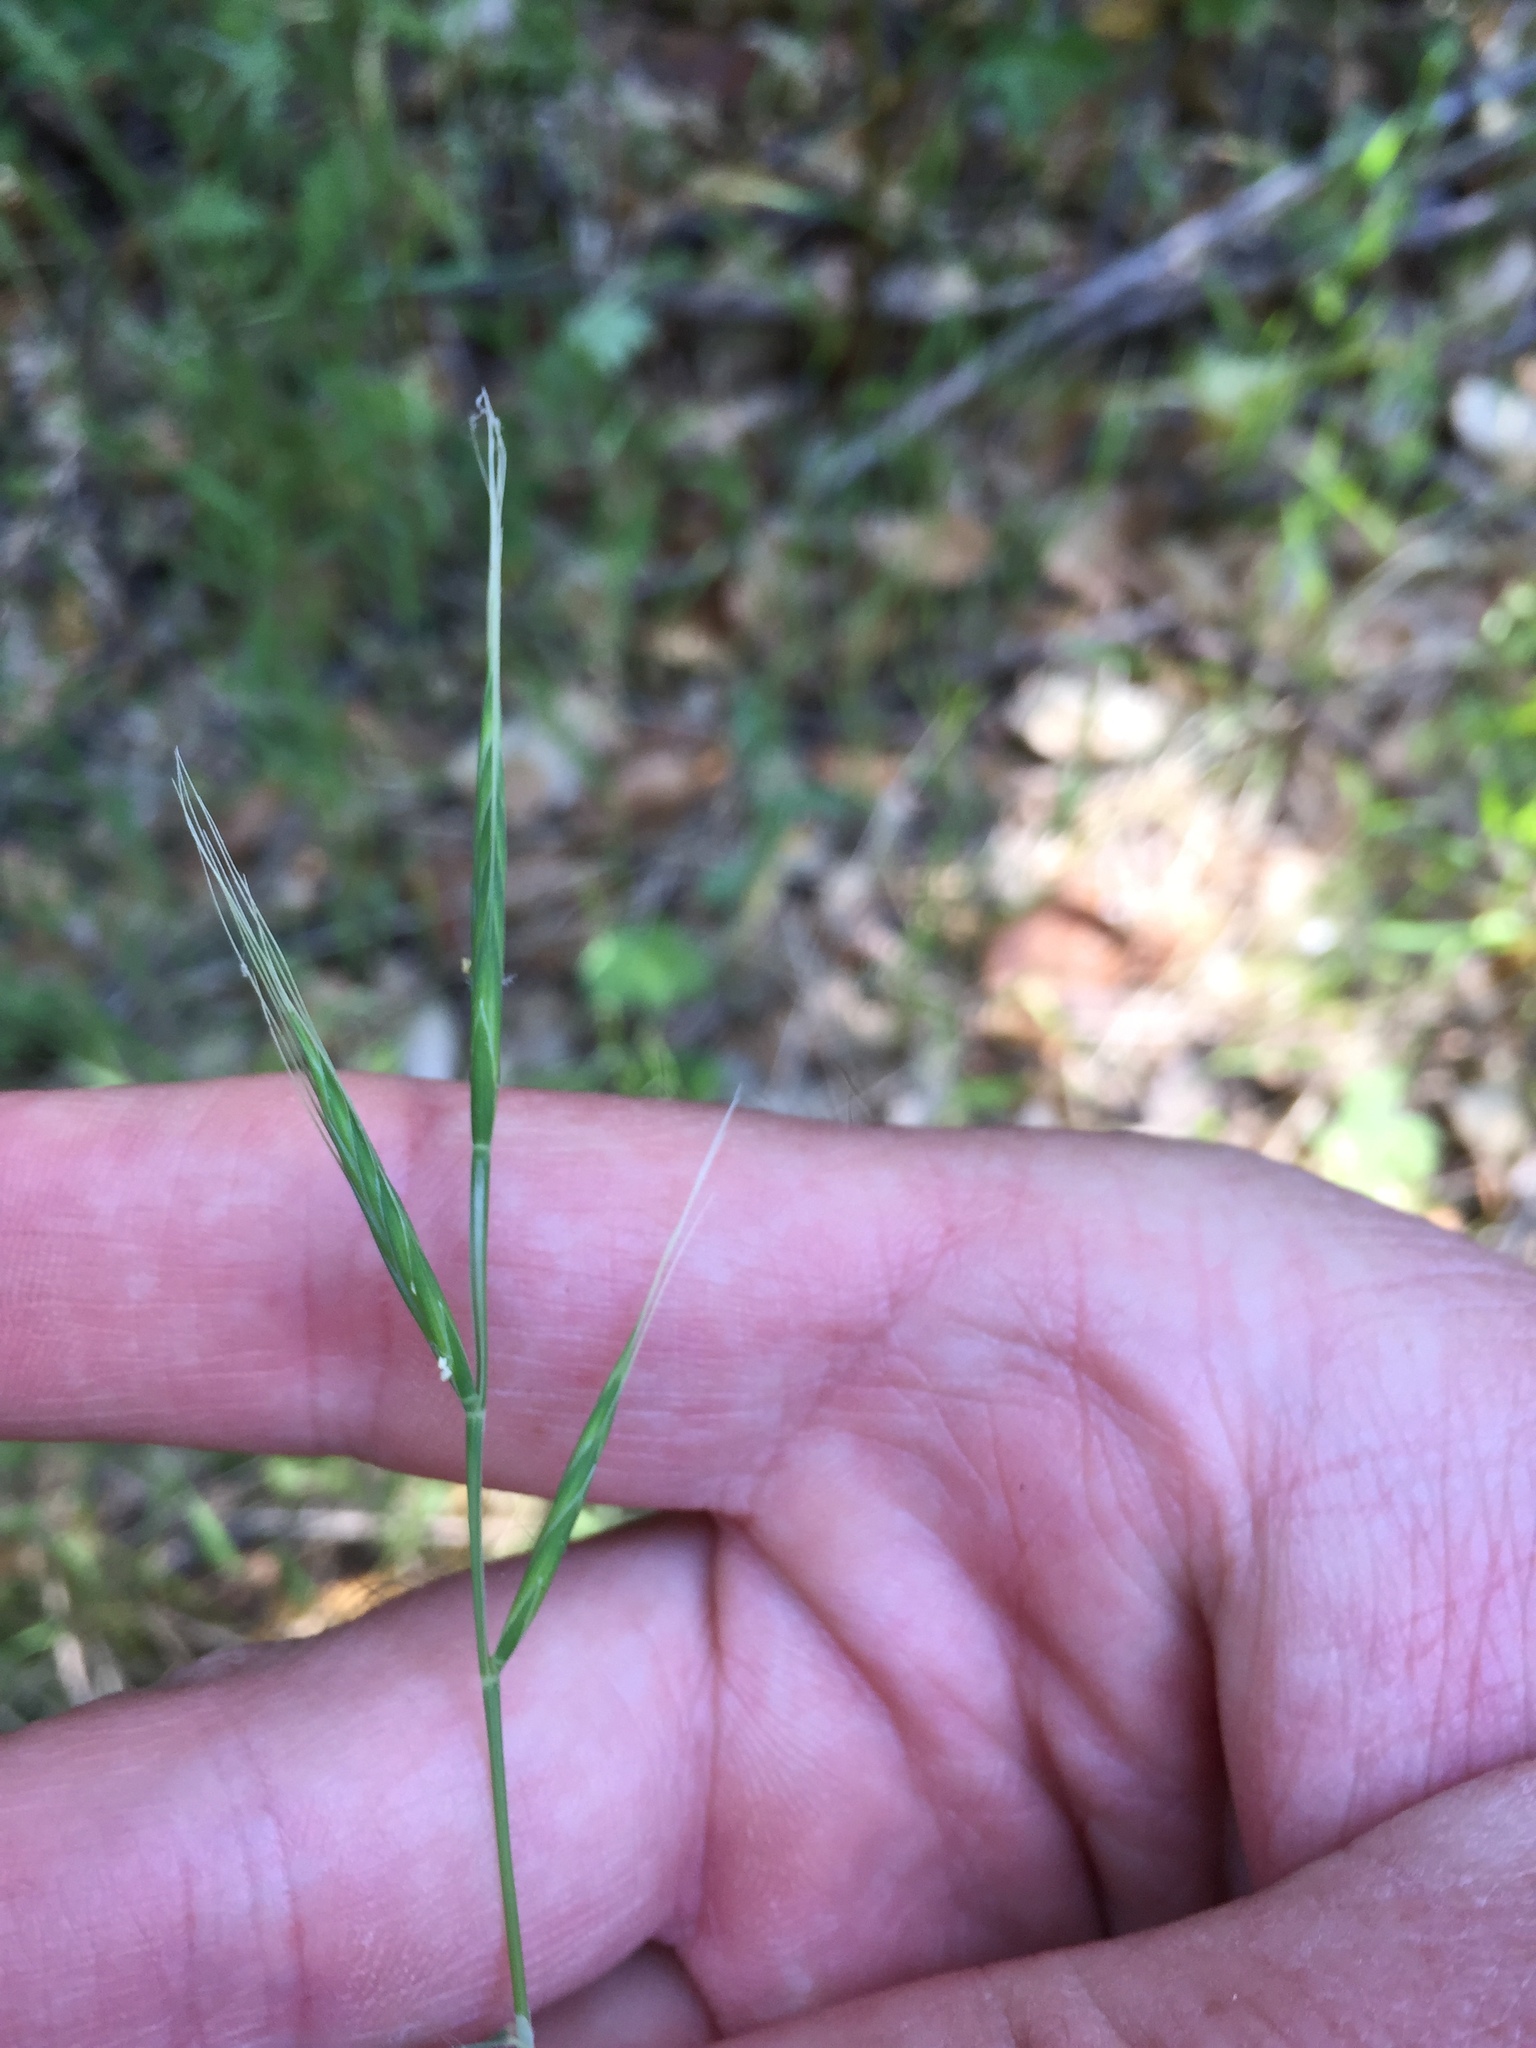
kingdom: Plantae
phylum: Tracheophyta
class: Liliopsida
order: Poales
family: Poaceae
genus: Brachypodium
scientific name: Brachypodium distachyon
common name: Stiff brome
